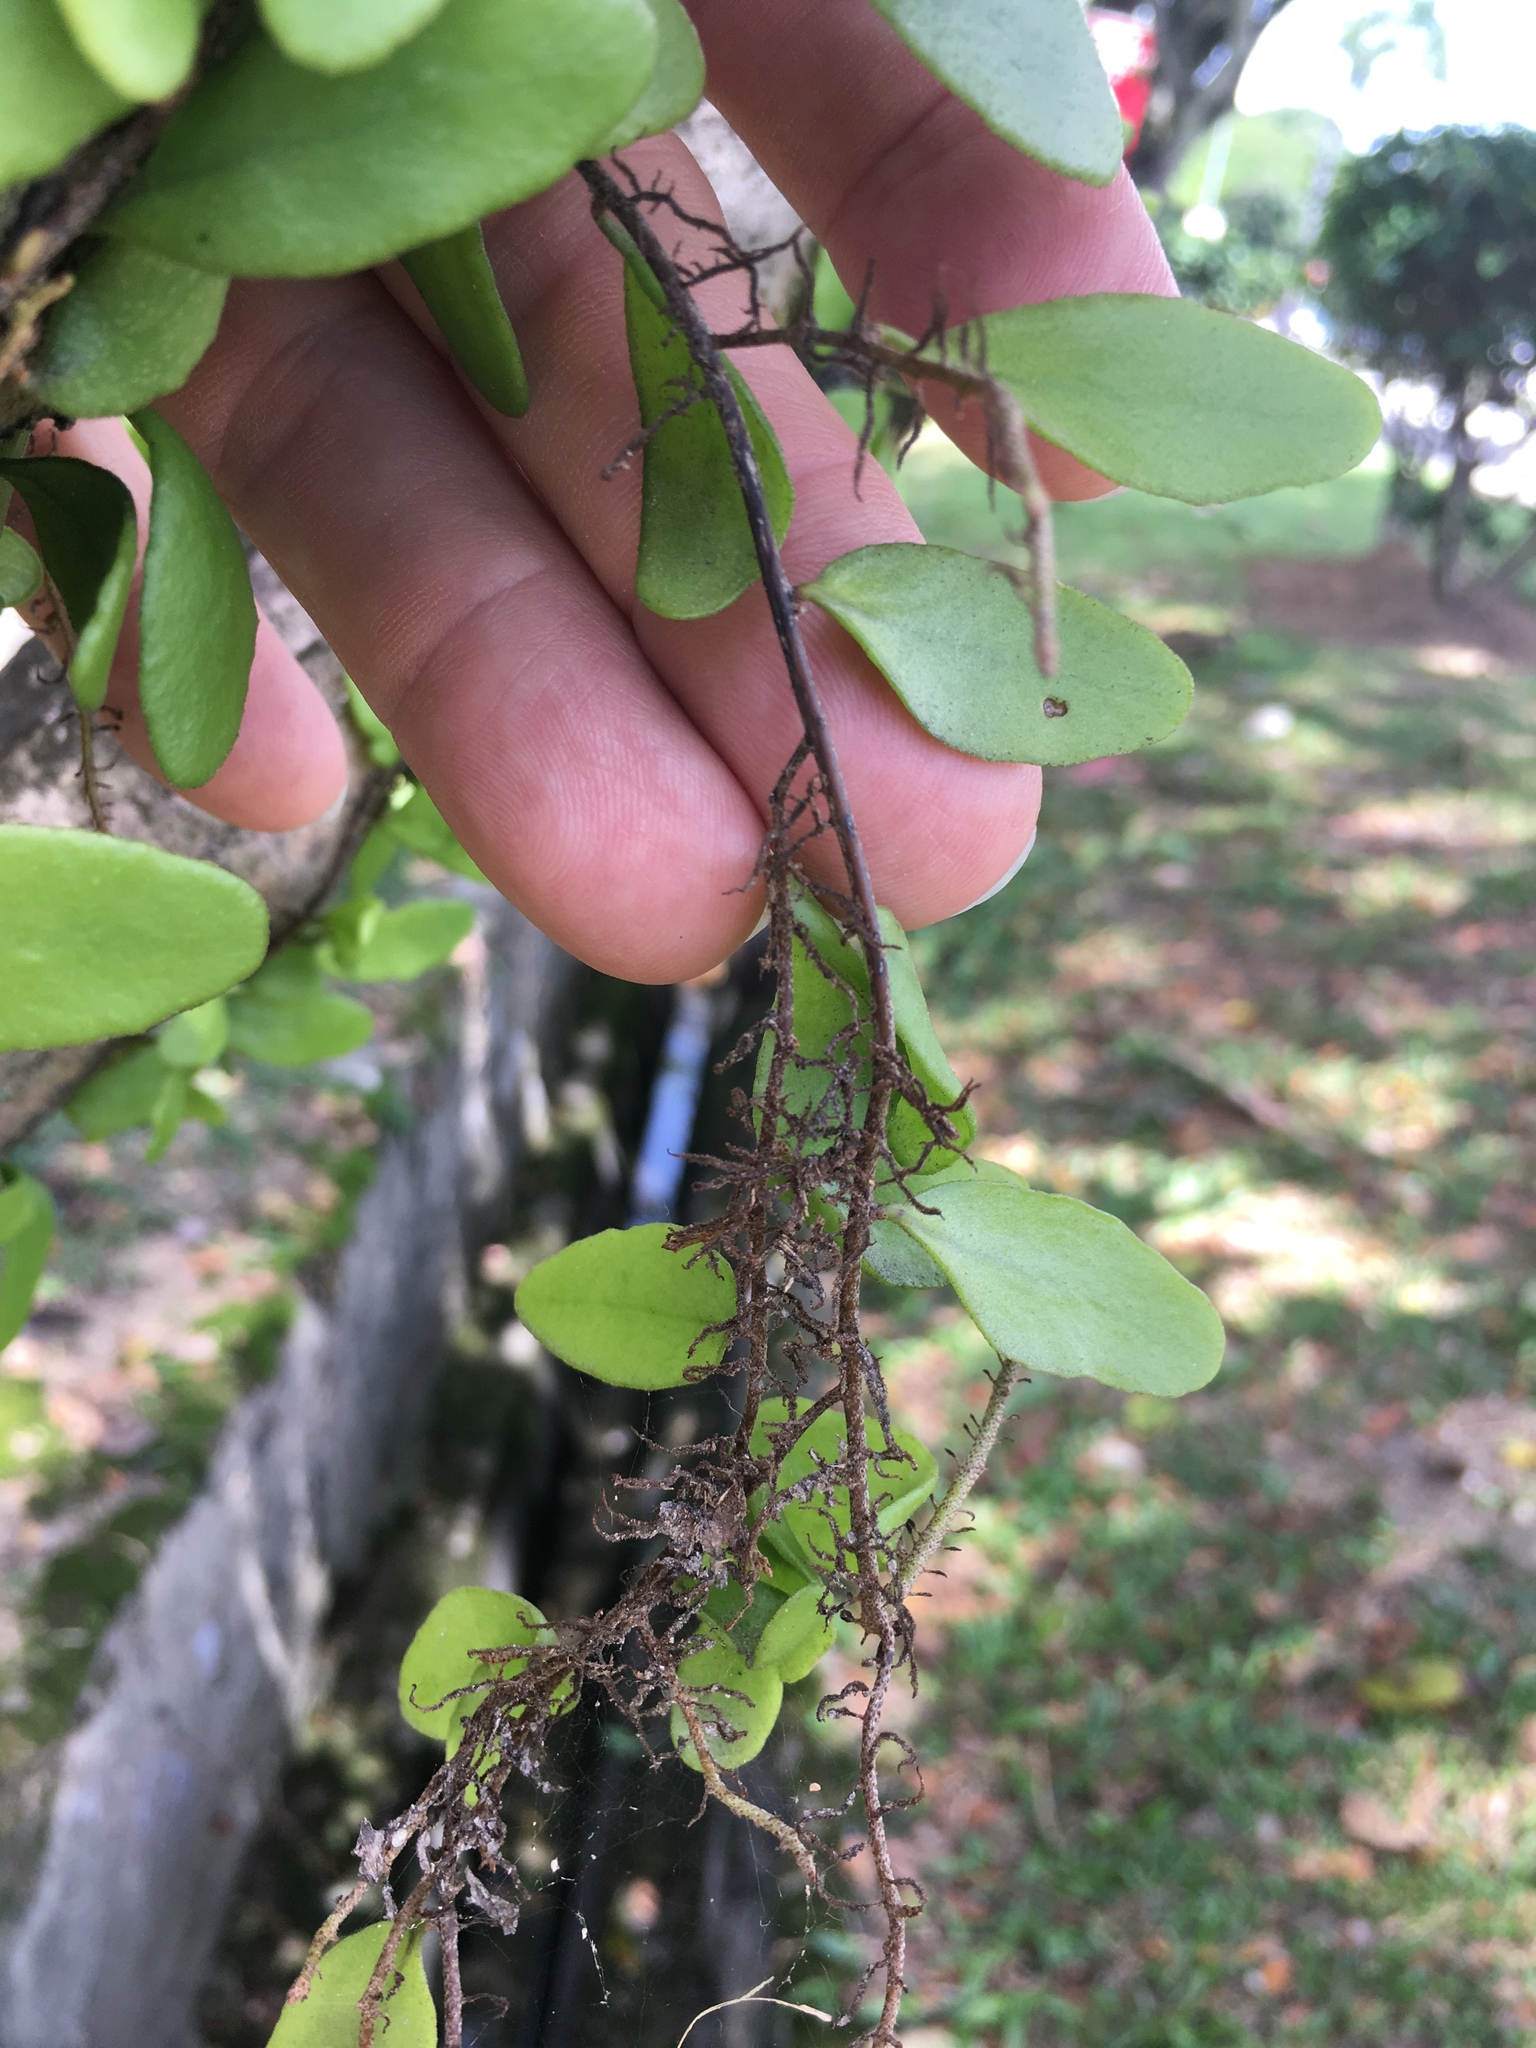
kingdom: Plantae
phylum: Tracheophyta
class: Polypodiopsida
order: Polypodiales
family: Polypodiaceae
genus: Pyrrosia
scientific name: Pyrrosia piloselloides
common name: Epiphytic creeping fern
